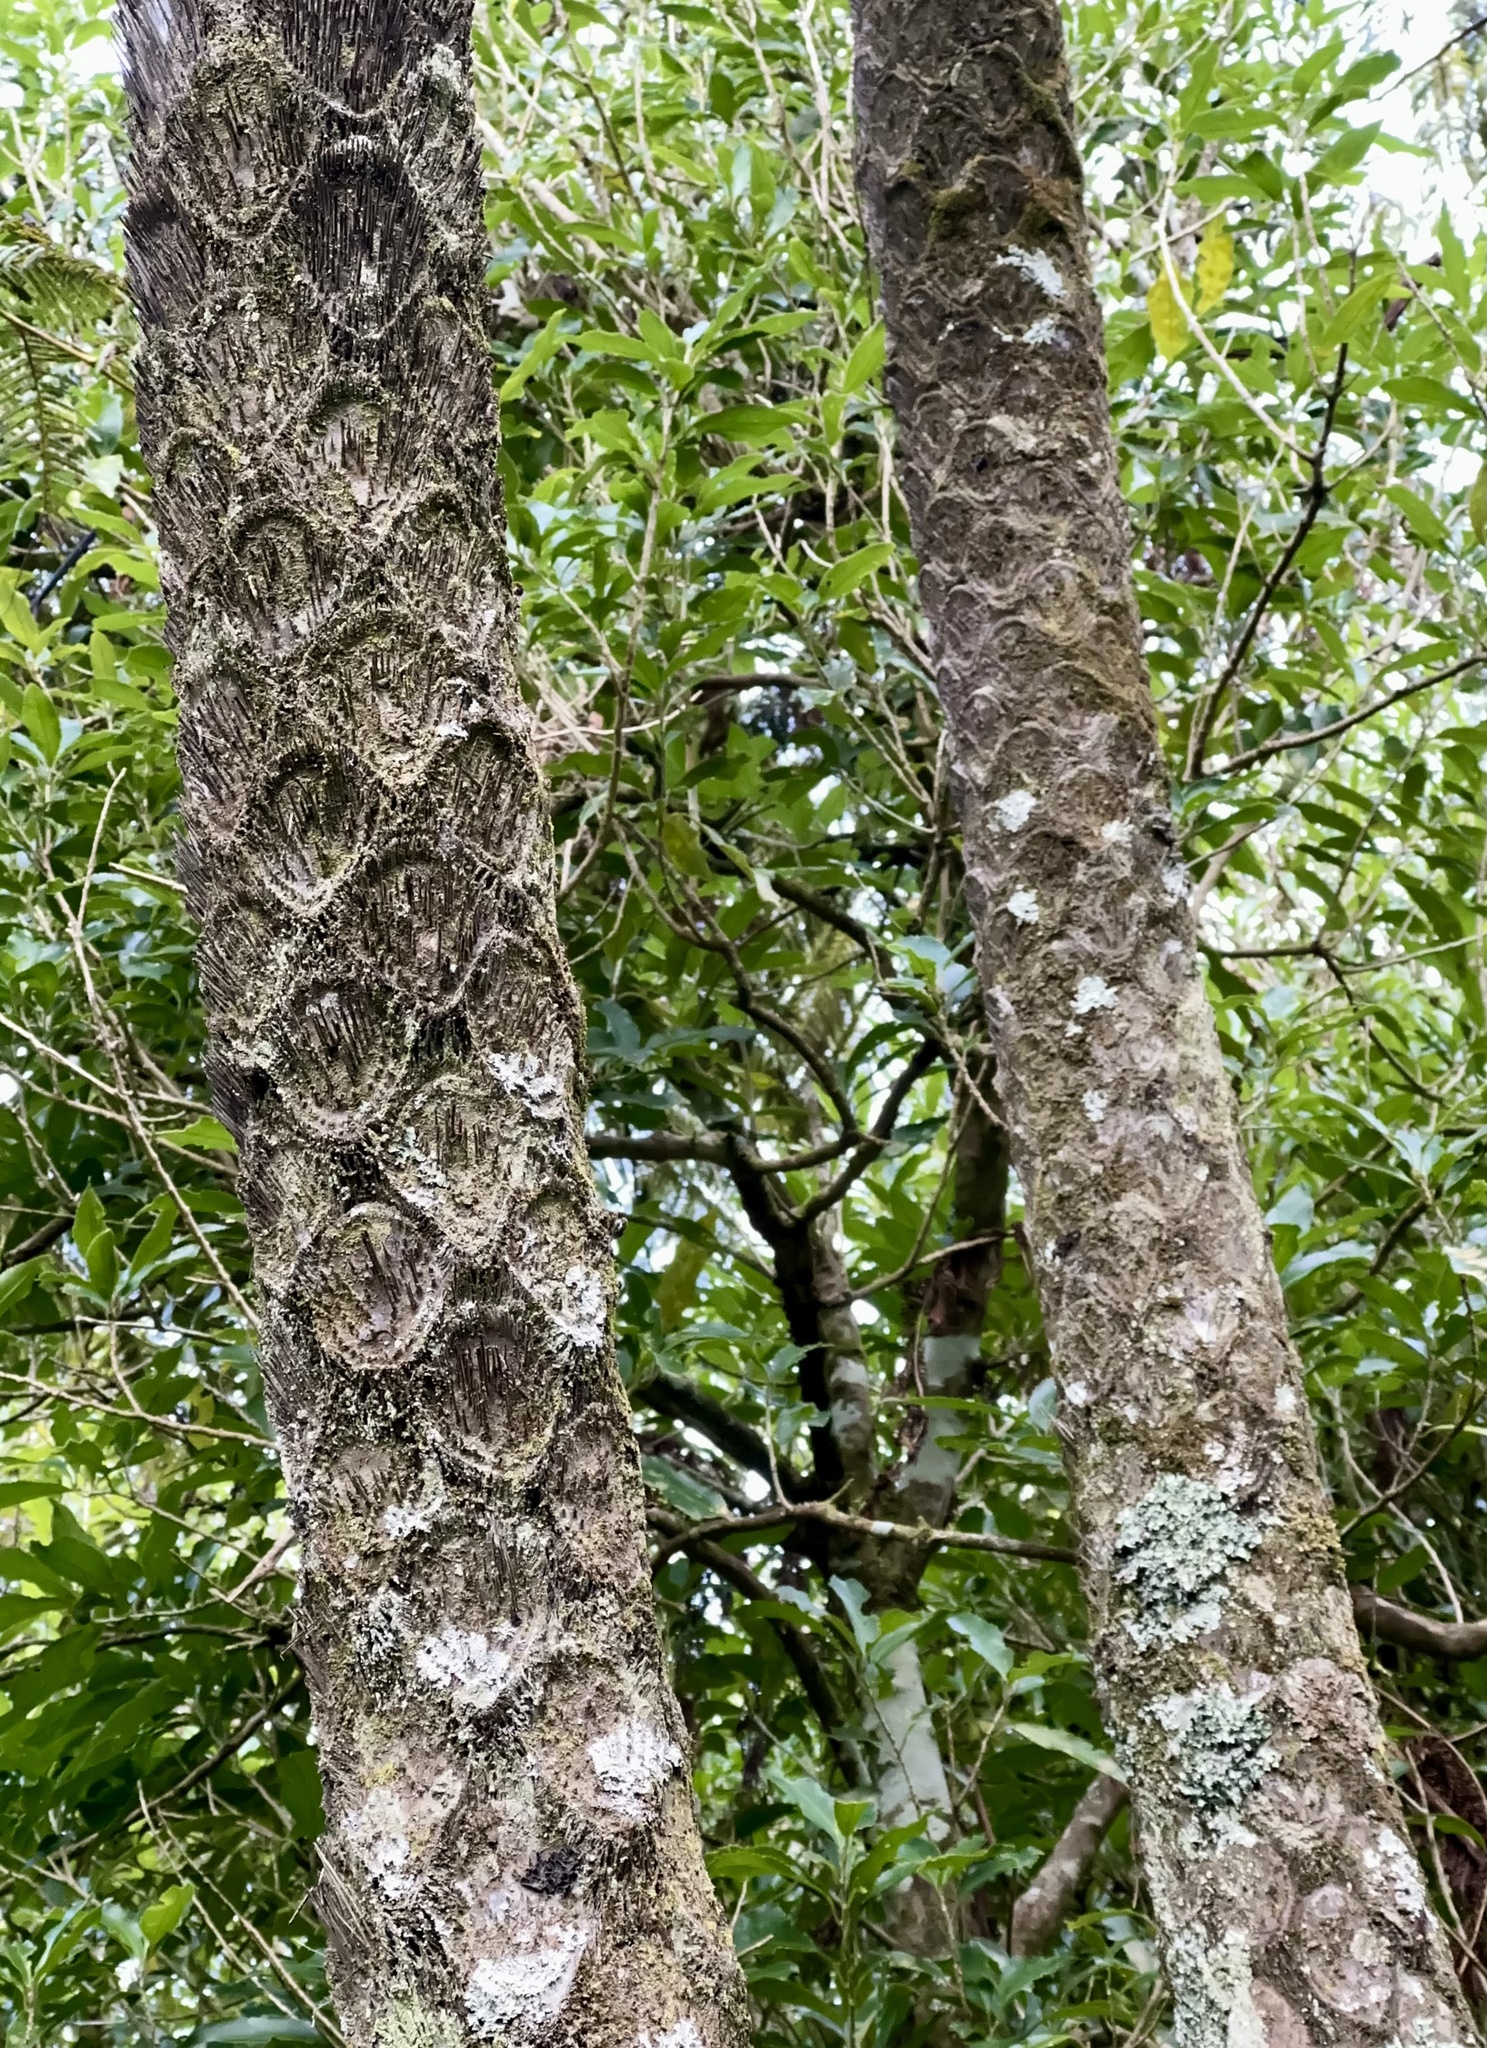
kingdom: Plantae
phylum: Tracheophyta
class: Polypodiopsida
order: Cyatheales
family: Cyatheaceae
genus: Sphaeropteris
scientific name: Sphaeropteris medullaris
